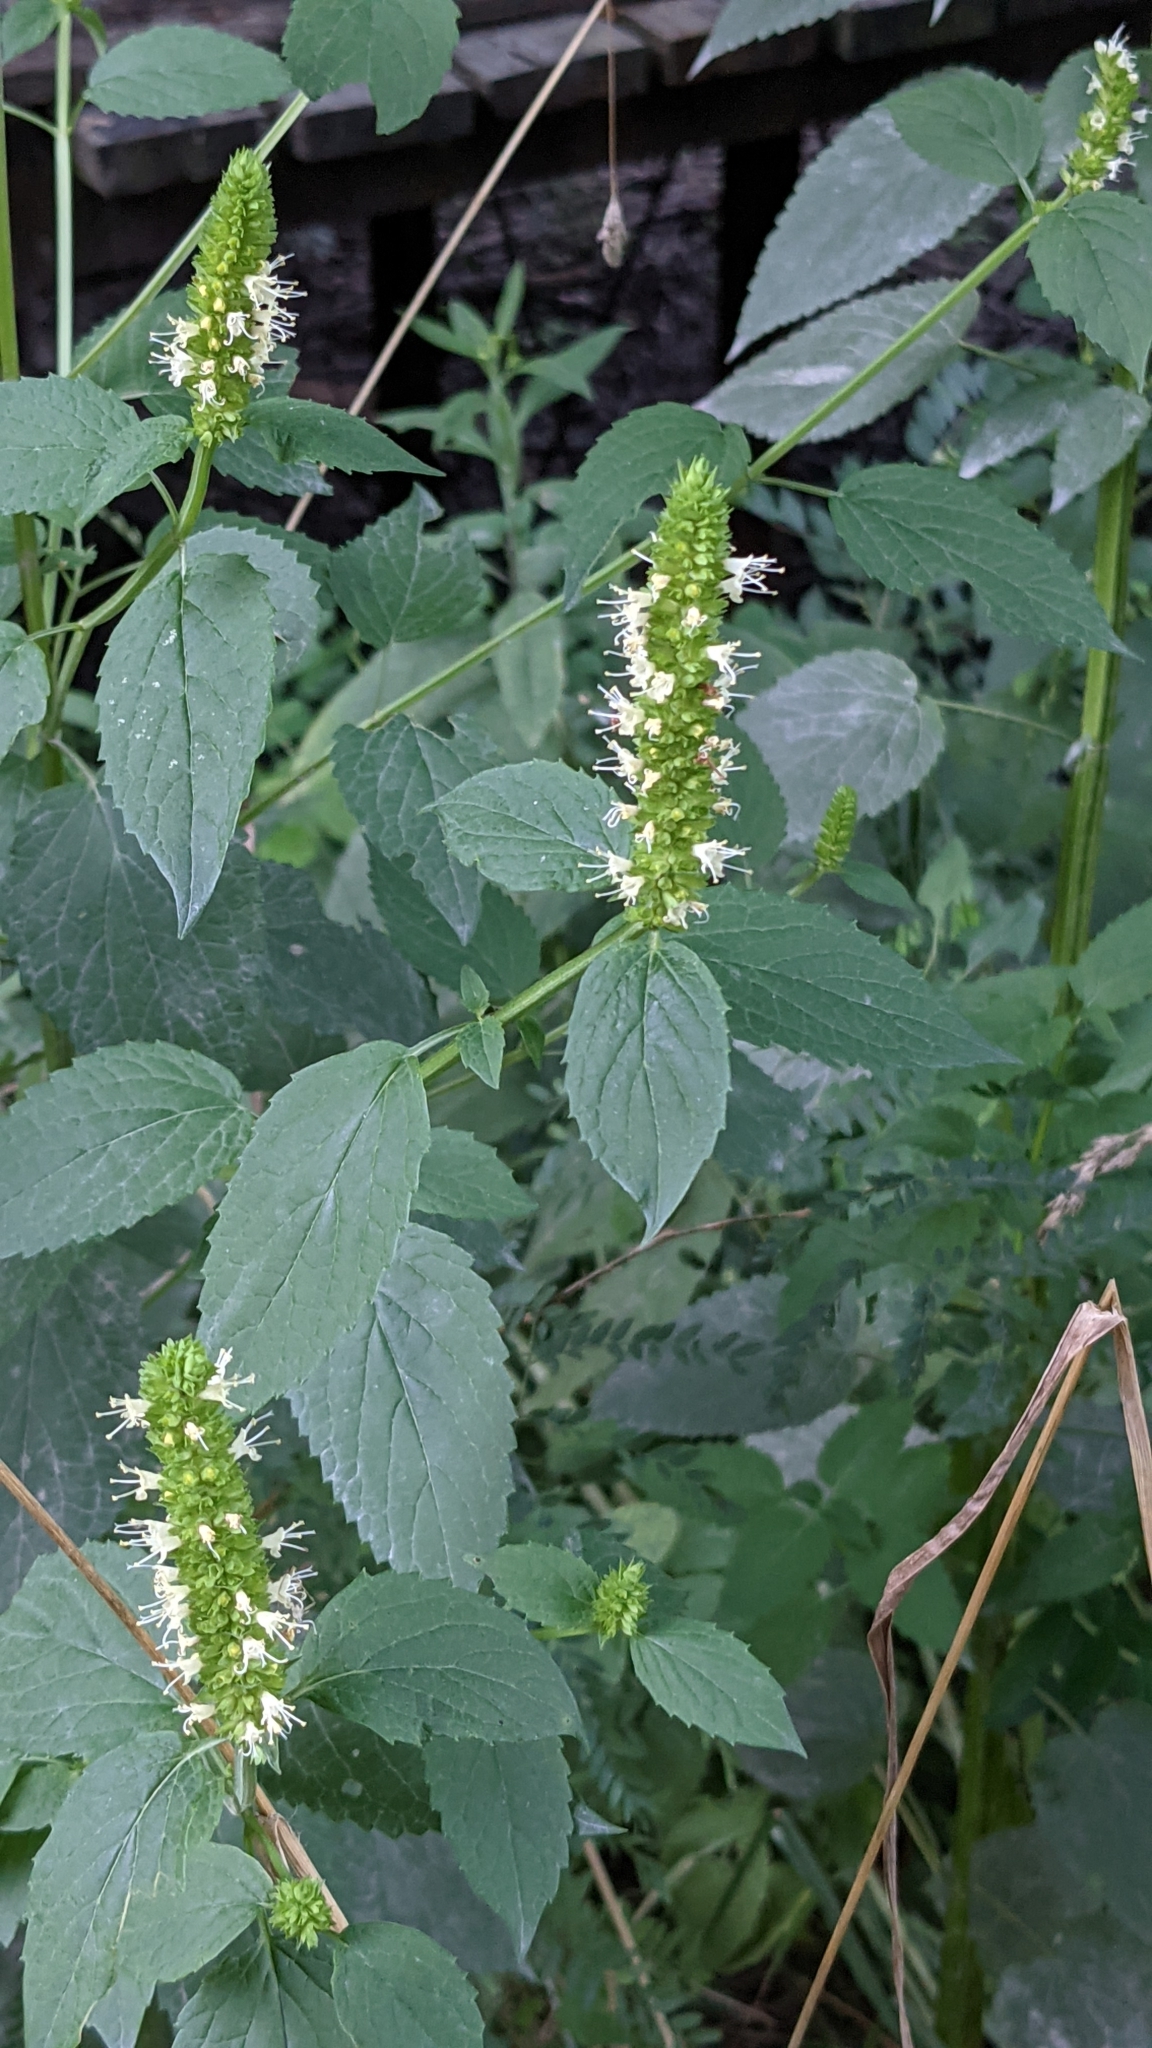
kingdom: Plantae
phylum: Tracheophyta
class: Magnoliopsida
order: Lamiales
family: Lamiaceae
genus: Agastache
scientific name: Agastache nepetoides
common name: Catnip giant hyssop
